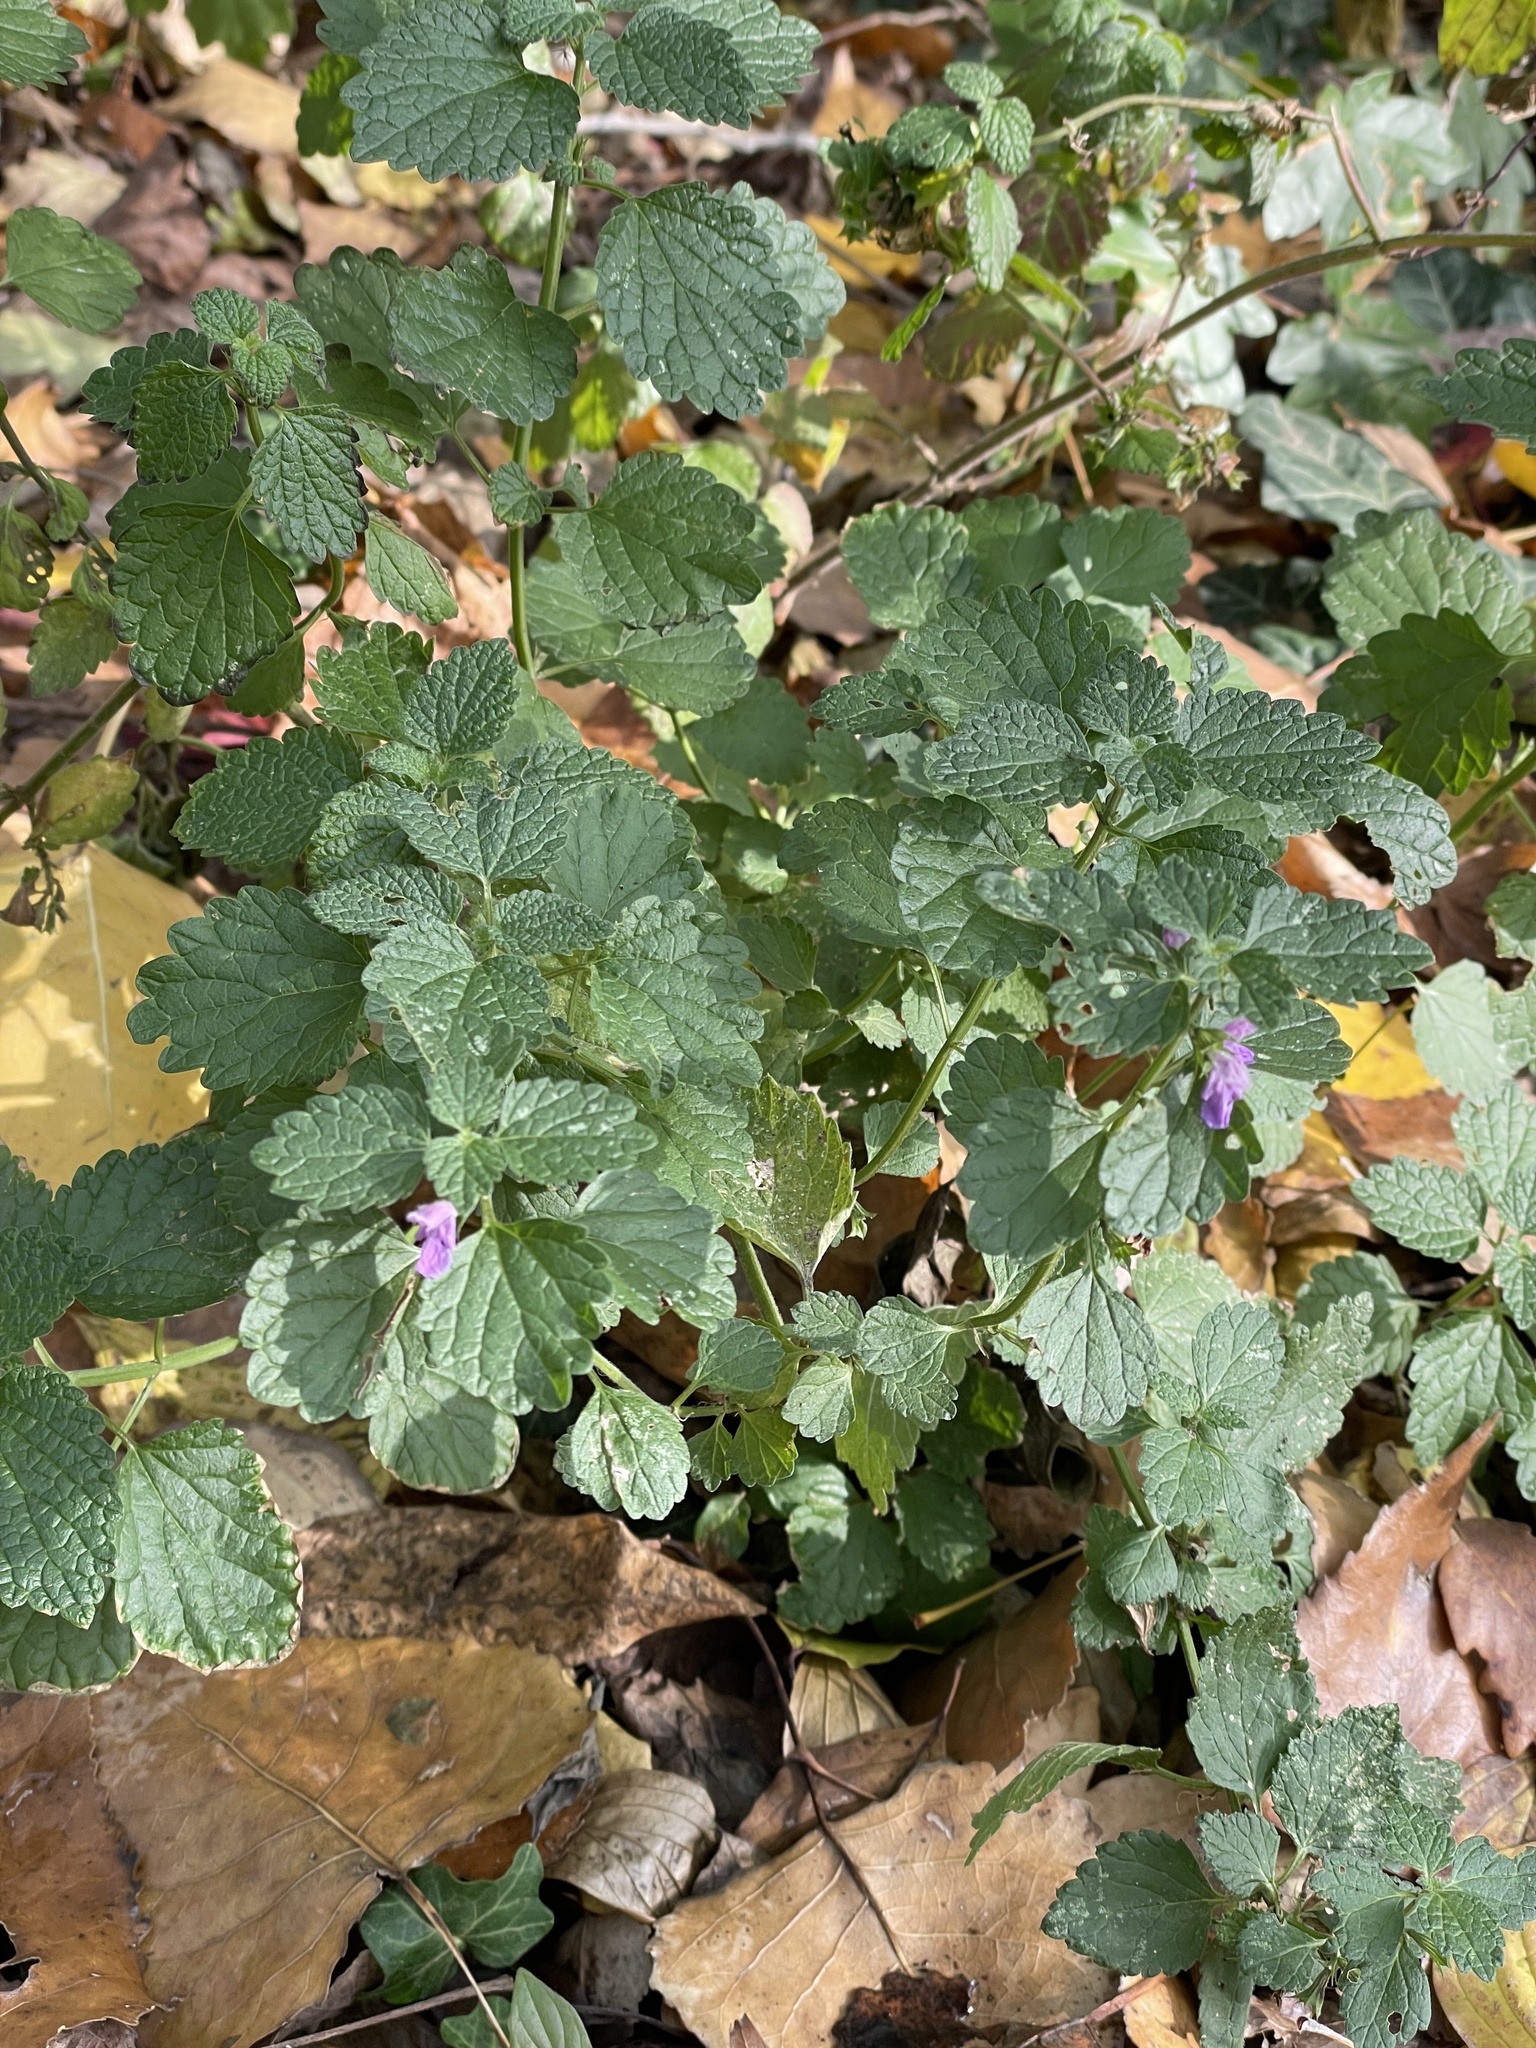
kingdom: Plantae
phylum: Tracheophyta
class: Magnoliopsida
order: Lamiales
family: Lamiaceae
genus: Ballota
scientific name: Ballota nigra
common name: Black horehound
